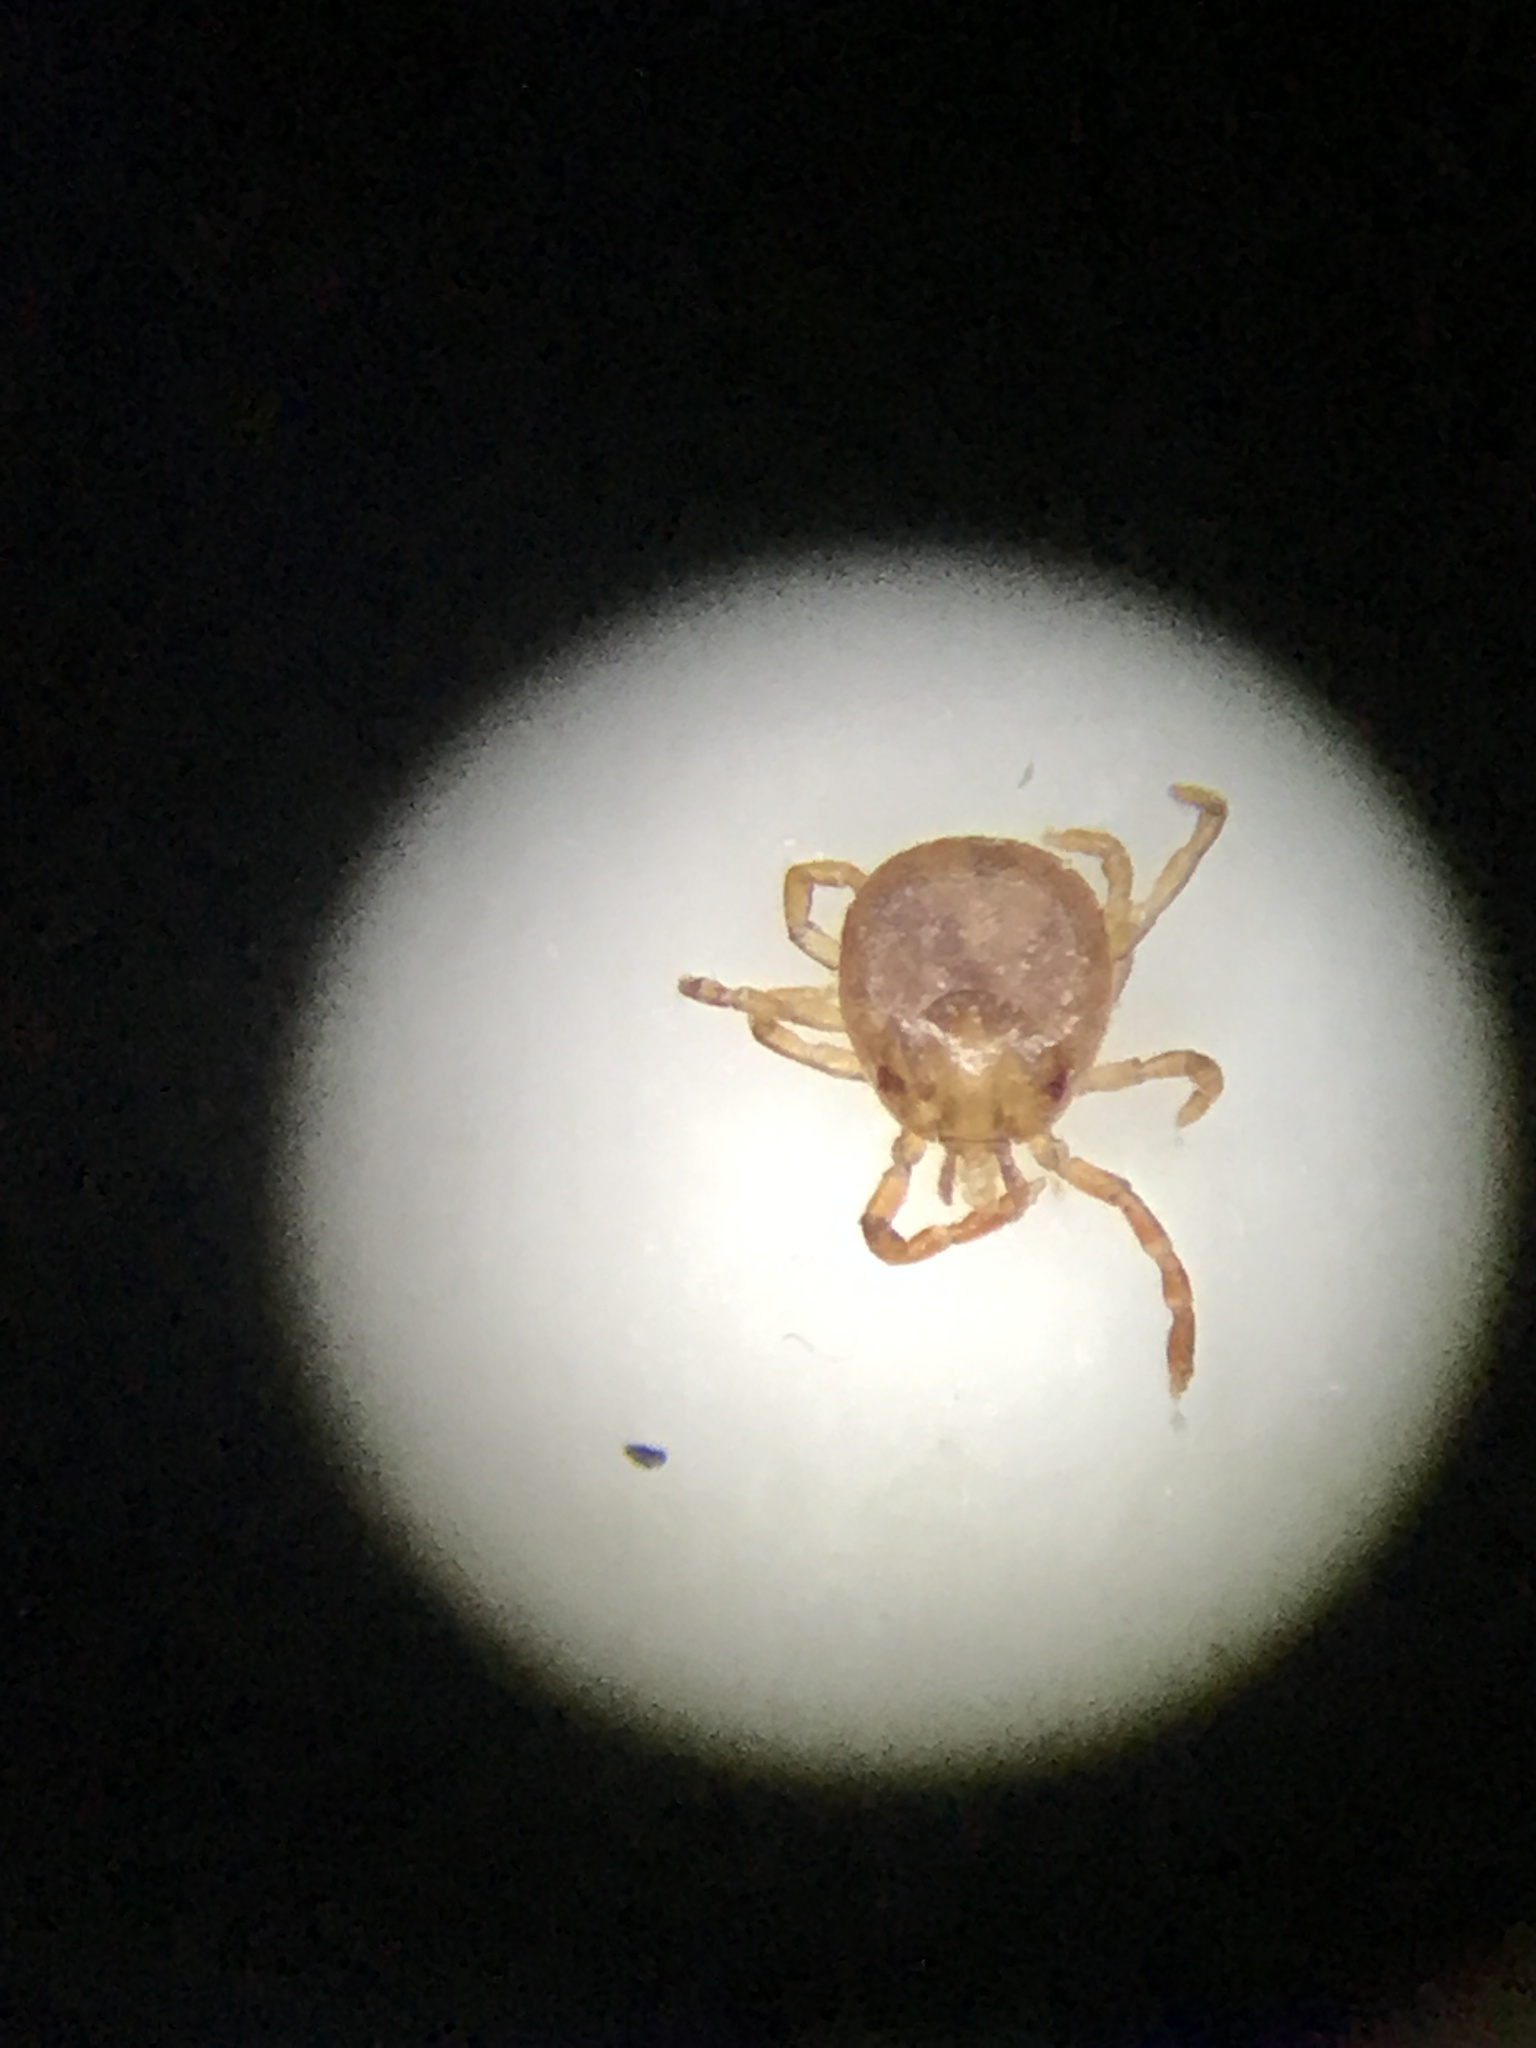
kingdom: Animalia
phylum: Arthropoda
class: Arachnida
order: Ixodida
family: Ixodidae
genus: Amblyomma
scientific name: Amblyomma americanum
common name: Lone star tick
